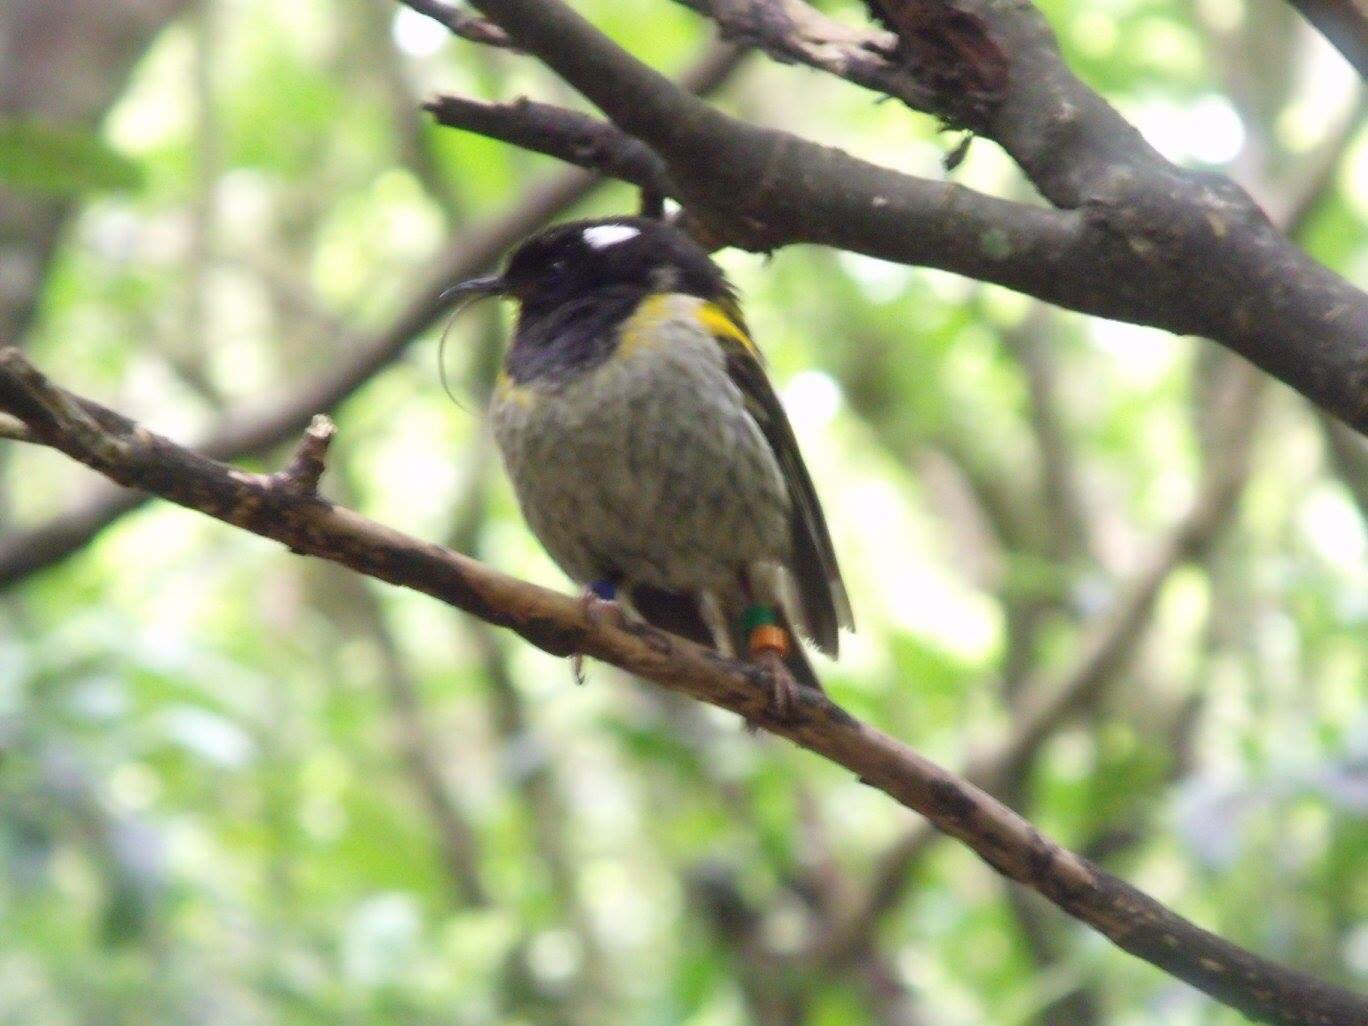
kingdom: Animalia
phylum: Chordata
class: Aves
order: Passeriformes
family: Notiomystidae
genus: Notiomystis
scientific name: Notiomystis cincta
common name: Stitchbird
